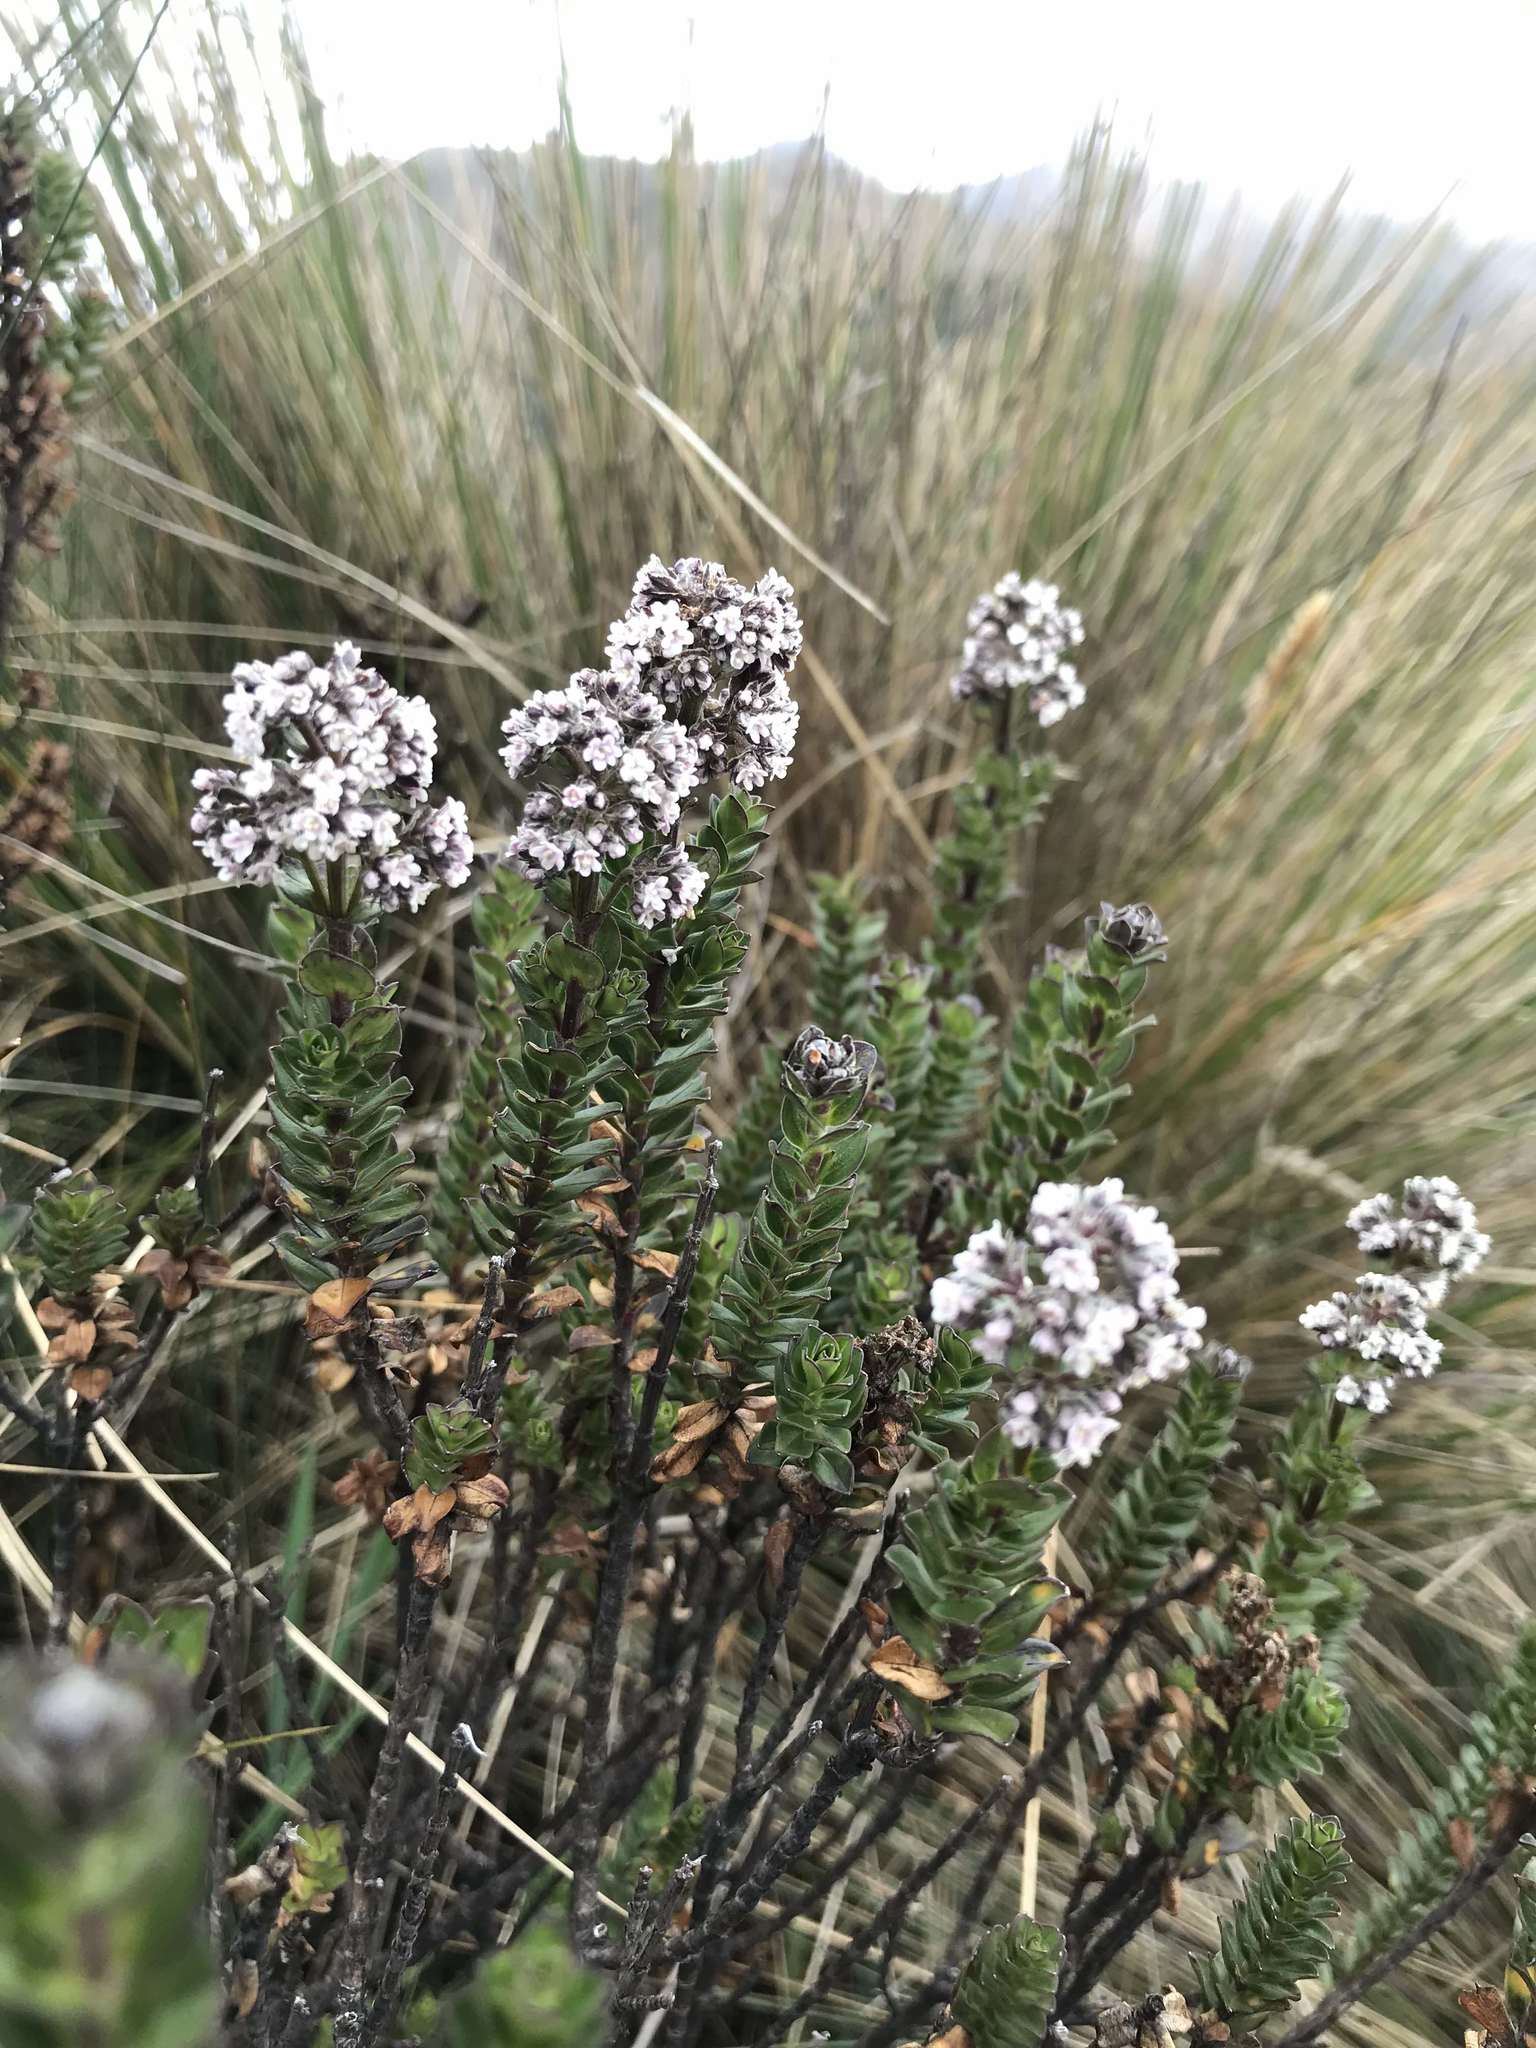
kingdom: Plantae
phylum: Tracheophyta
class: Magnoliopsida
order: Dipsacales
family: Caprifoliaceae
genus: Valeriana
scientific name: Valeriana microphylla
